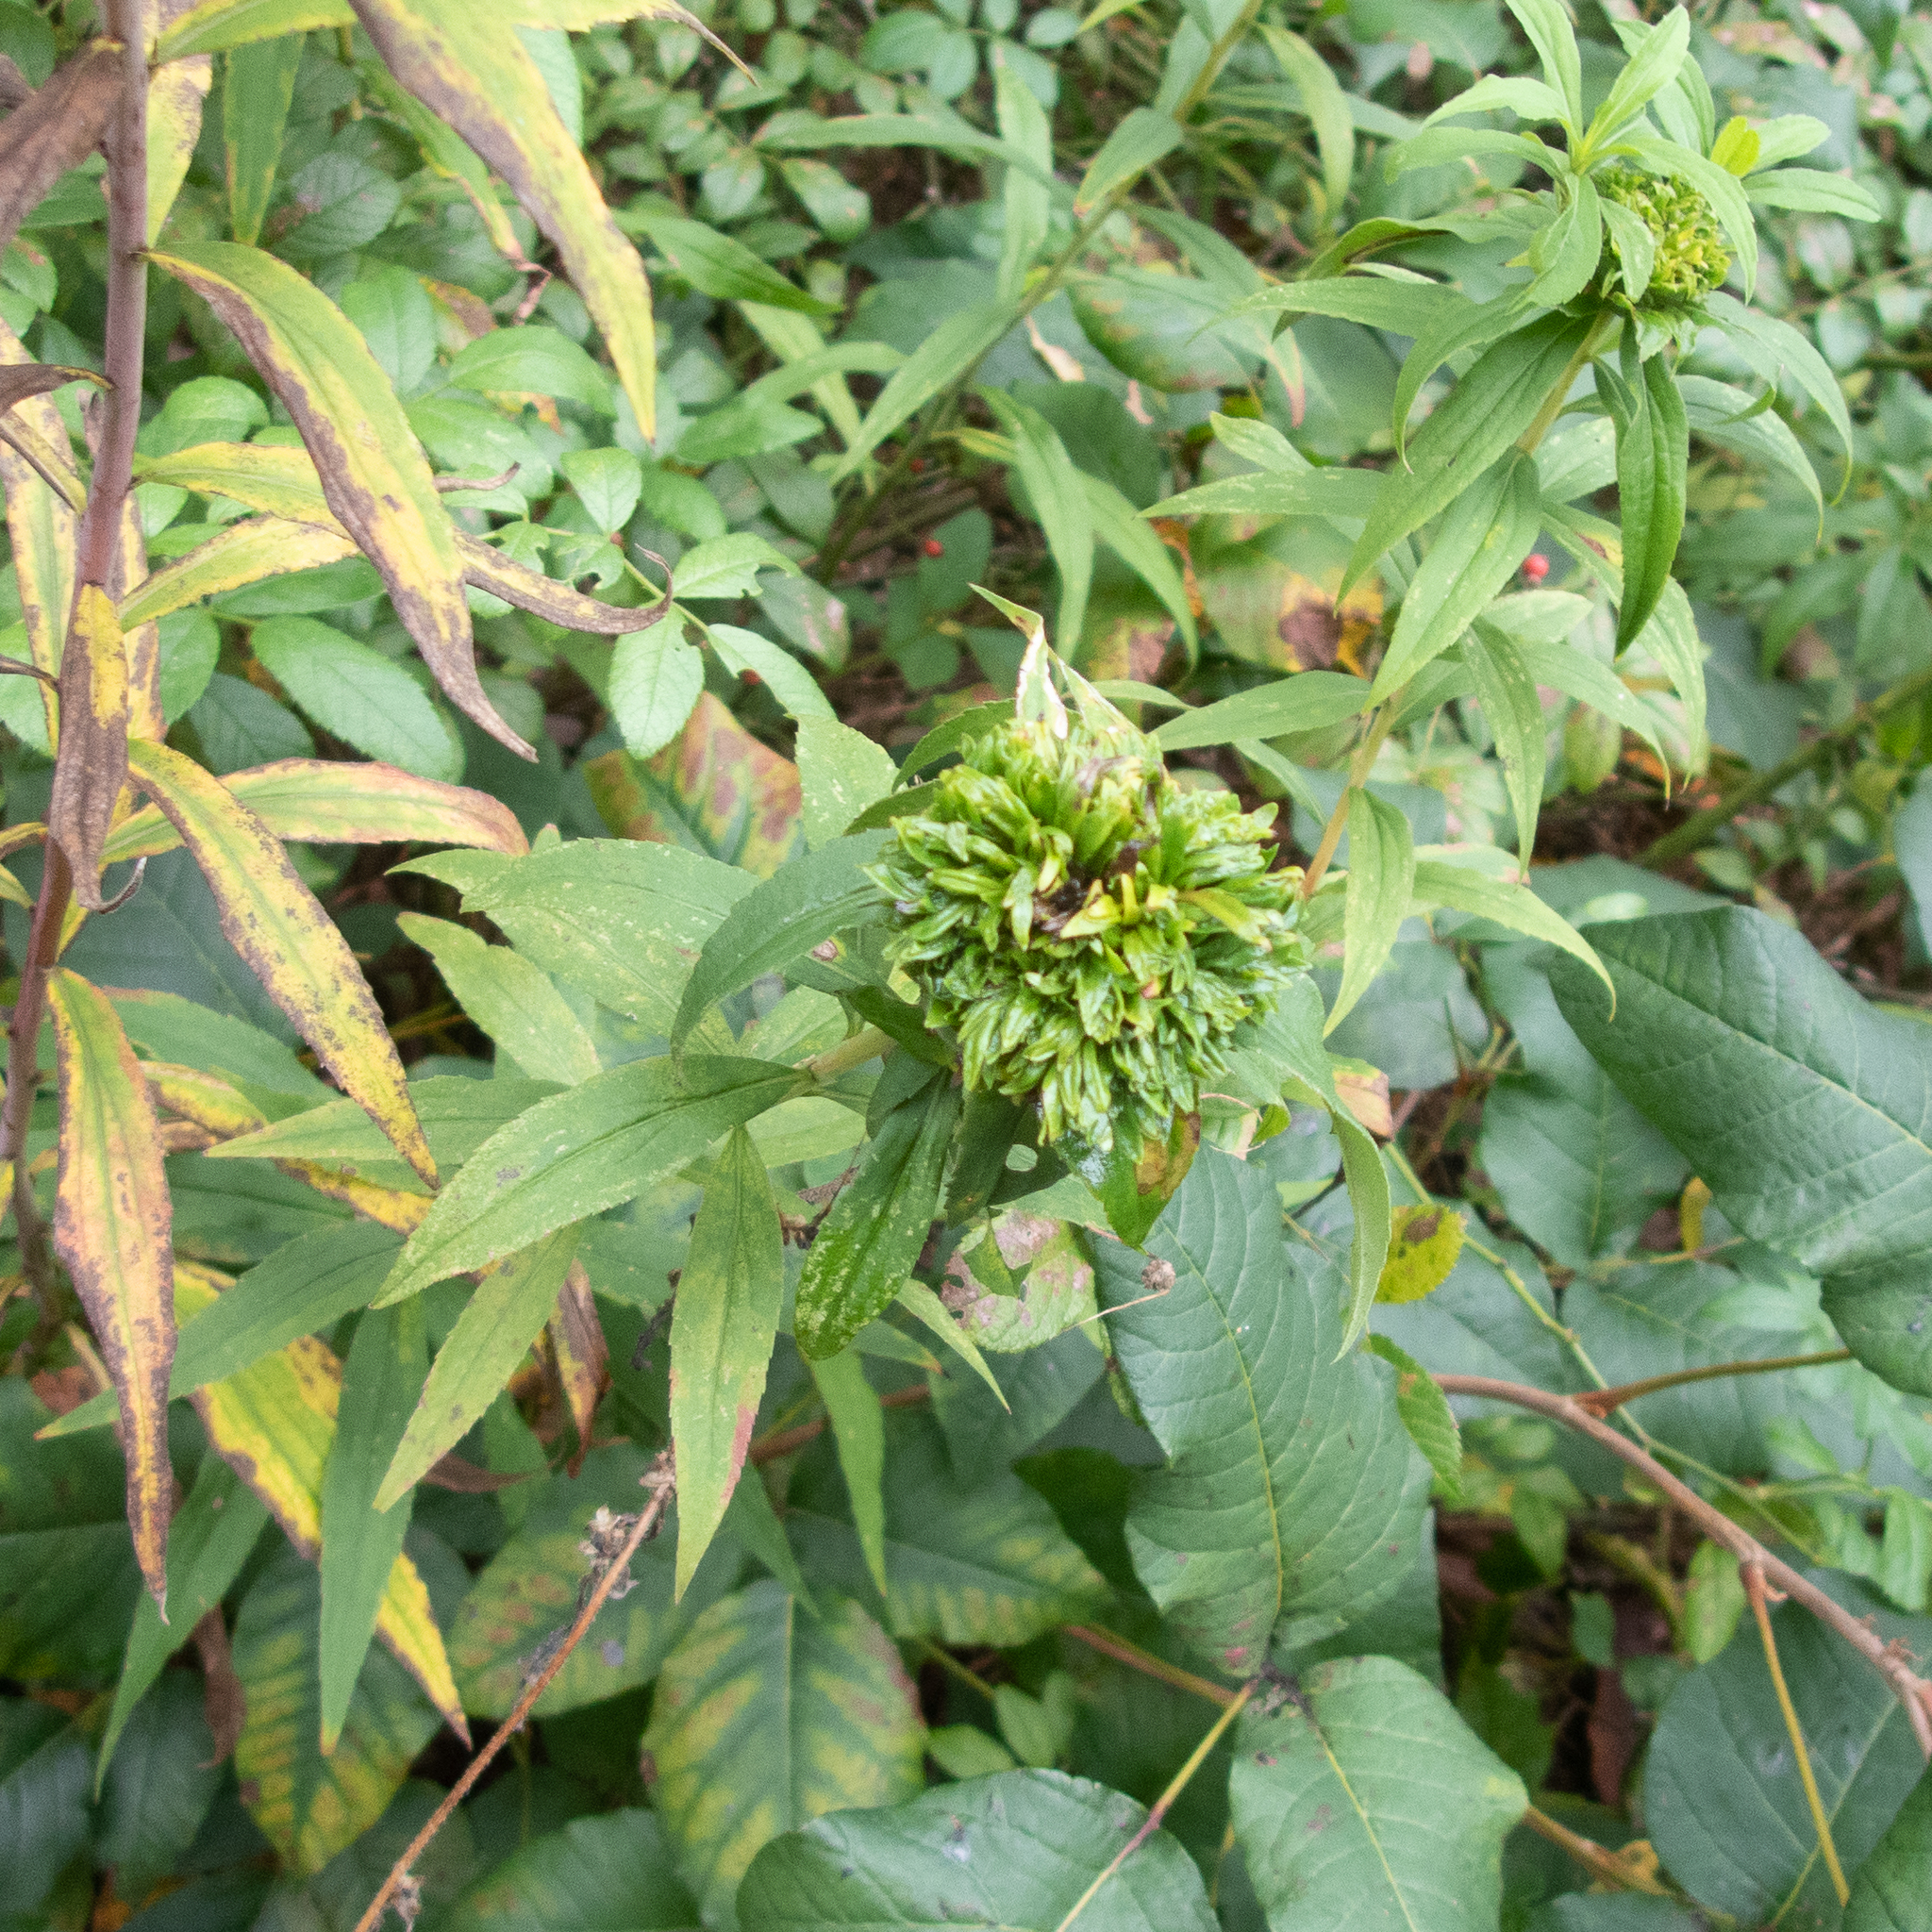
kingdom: Animalia
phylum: Arthropoda
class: Insecta
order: Diptera
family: Cecidomyiidae
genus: Rhopalomyia
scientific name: Rhopalomyia solidaginis
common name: Goldenrod bunch gall midge
